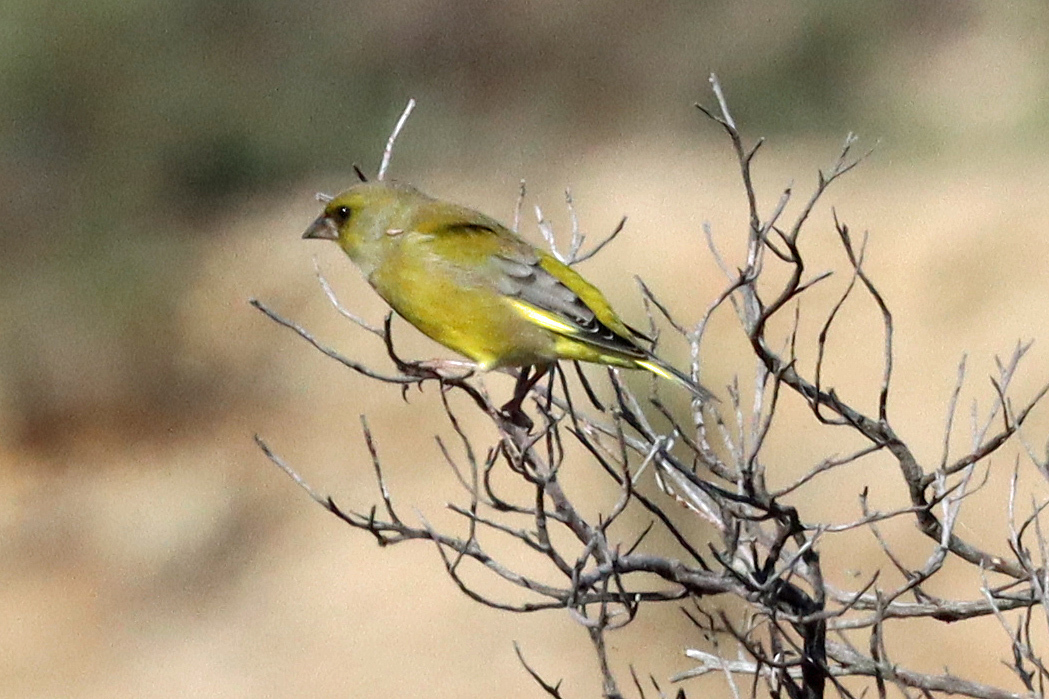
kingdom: Plantae
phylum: Tracheophyta
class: Liliopsida
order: Poales
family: Poaceae
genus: Chloris
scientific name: Chloris chloris
